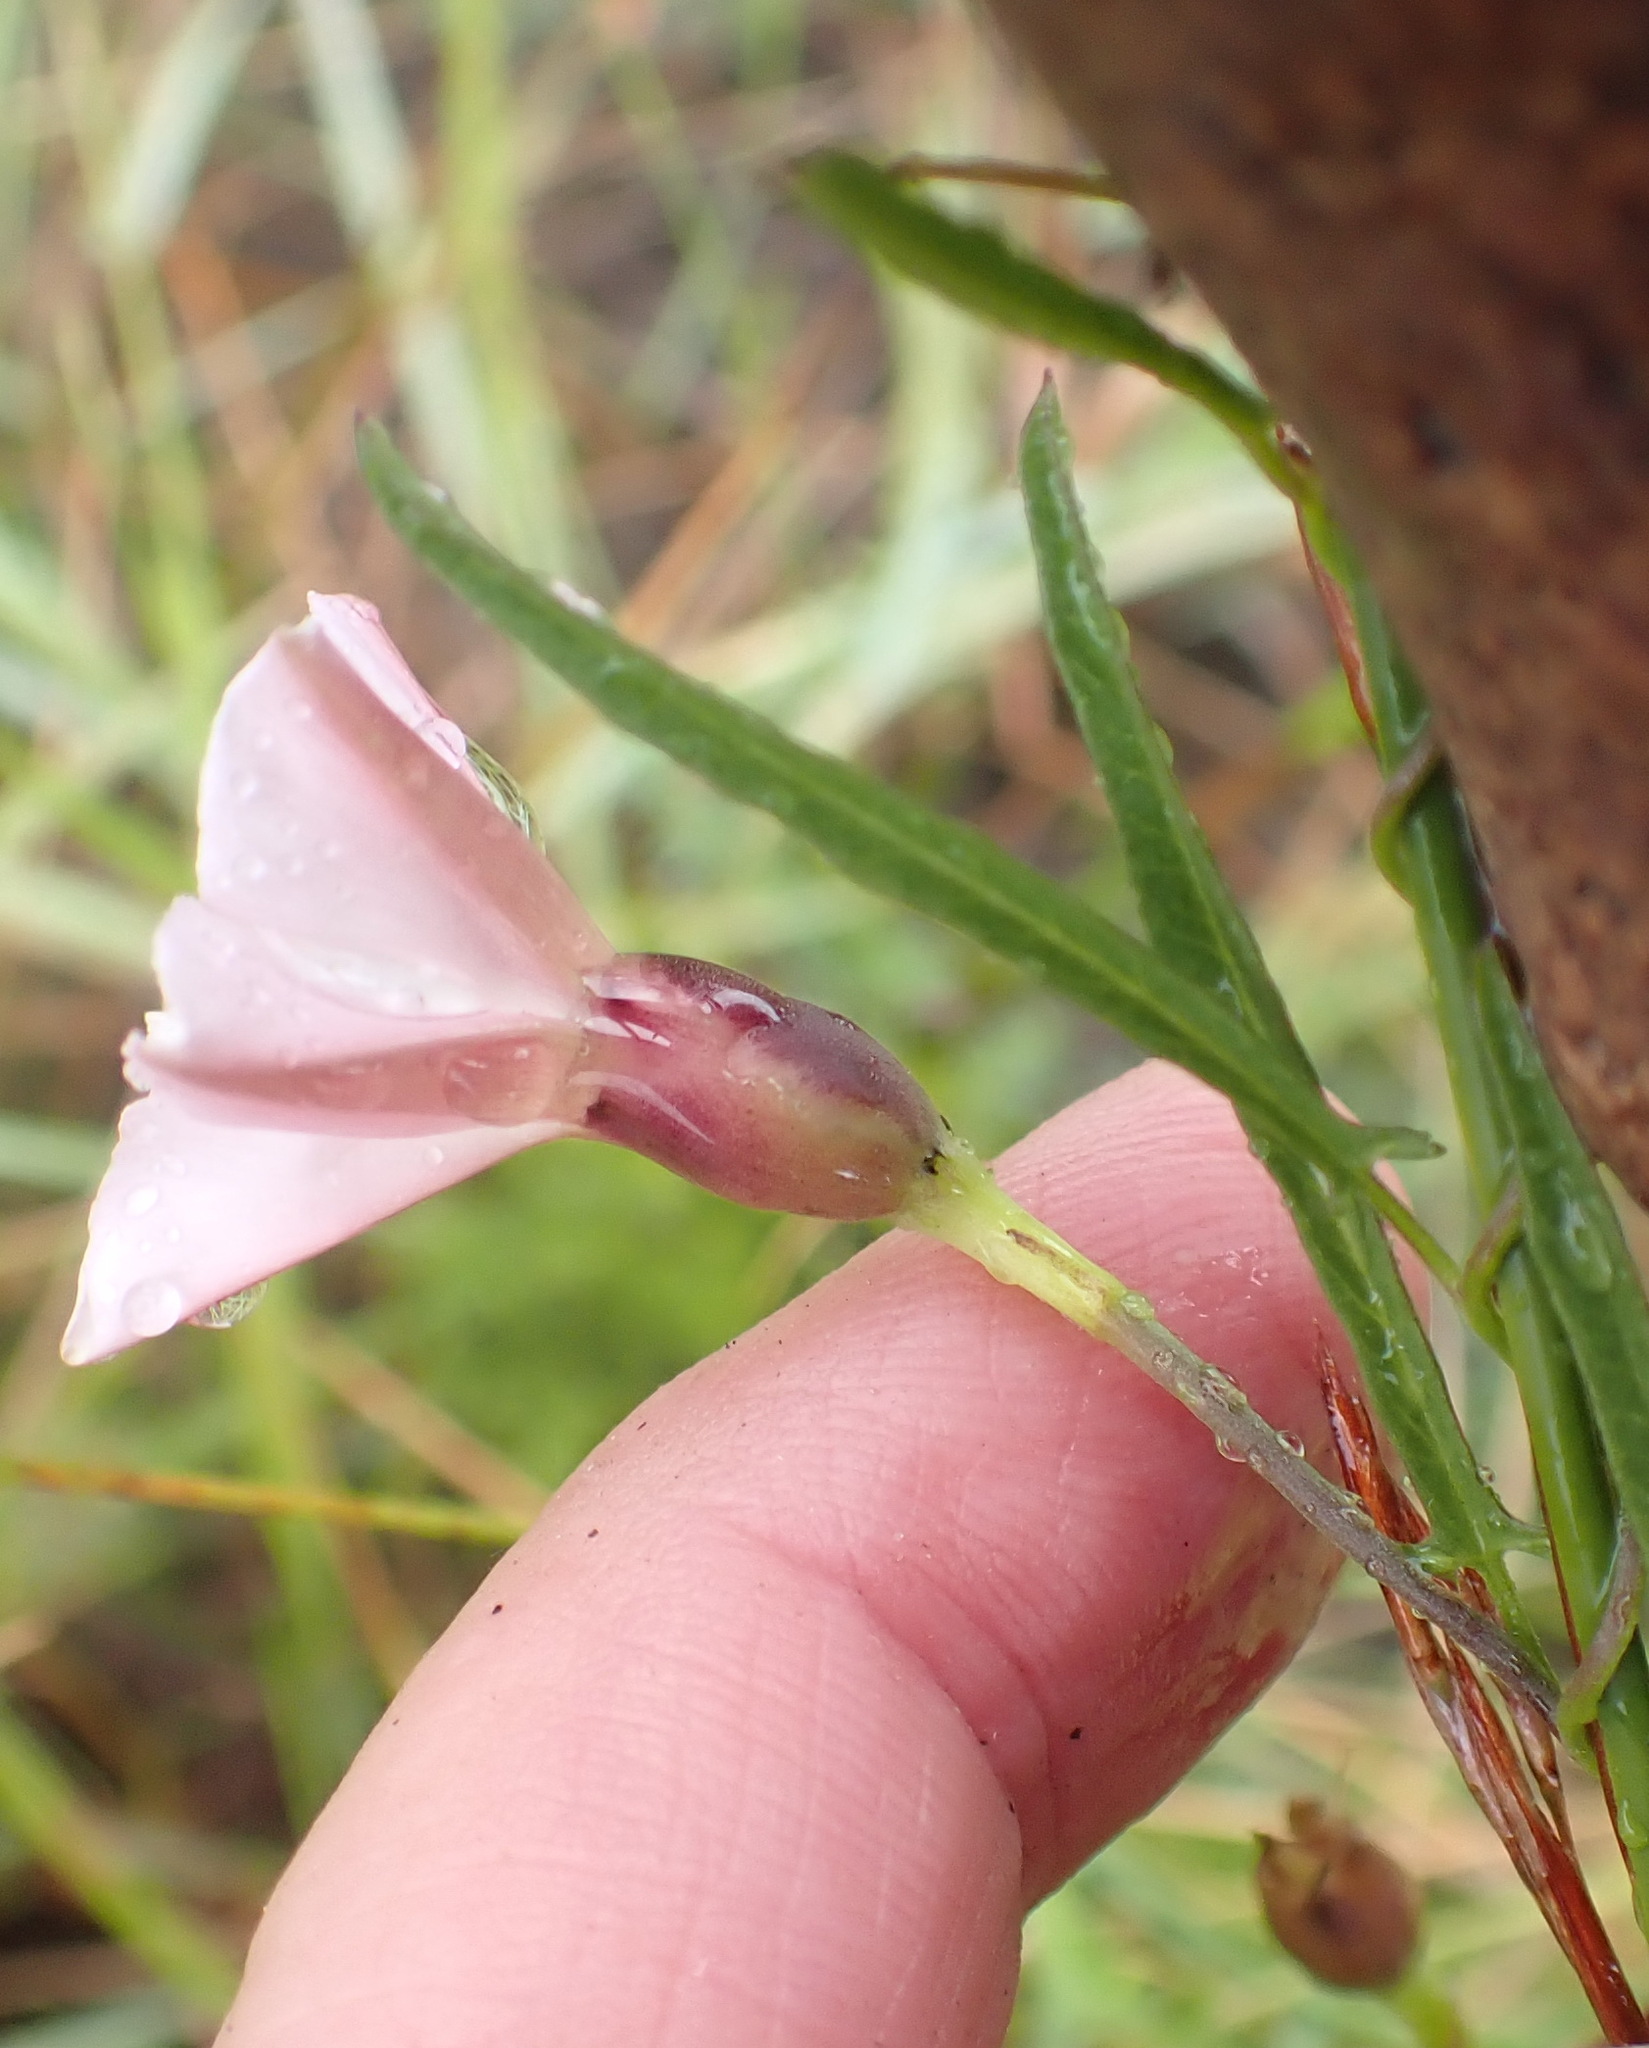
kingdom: Plantae
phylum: Tracheophyta
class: Magnoliopsida
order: Solanales
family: Convolvulaceae
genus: Convolvulus
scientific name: Convolvulus sagittatus
